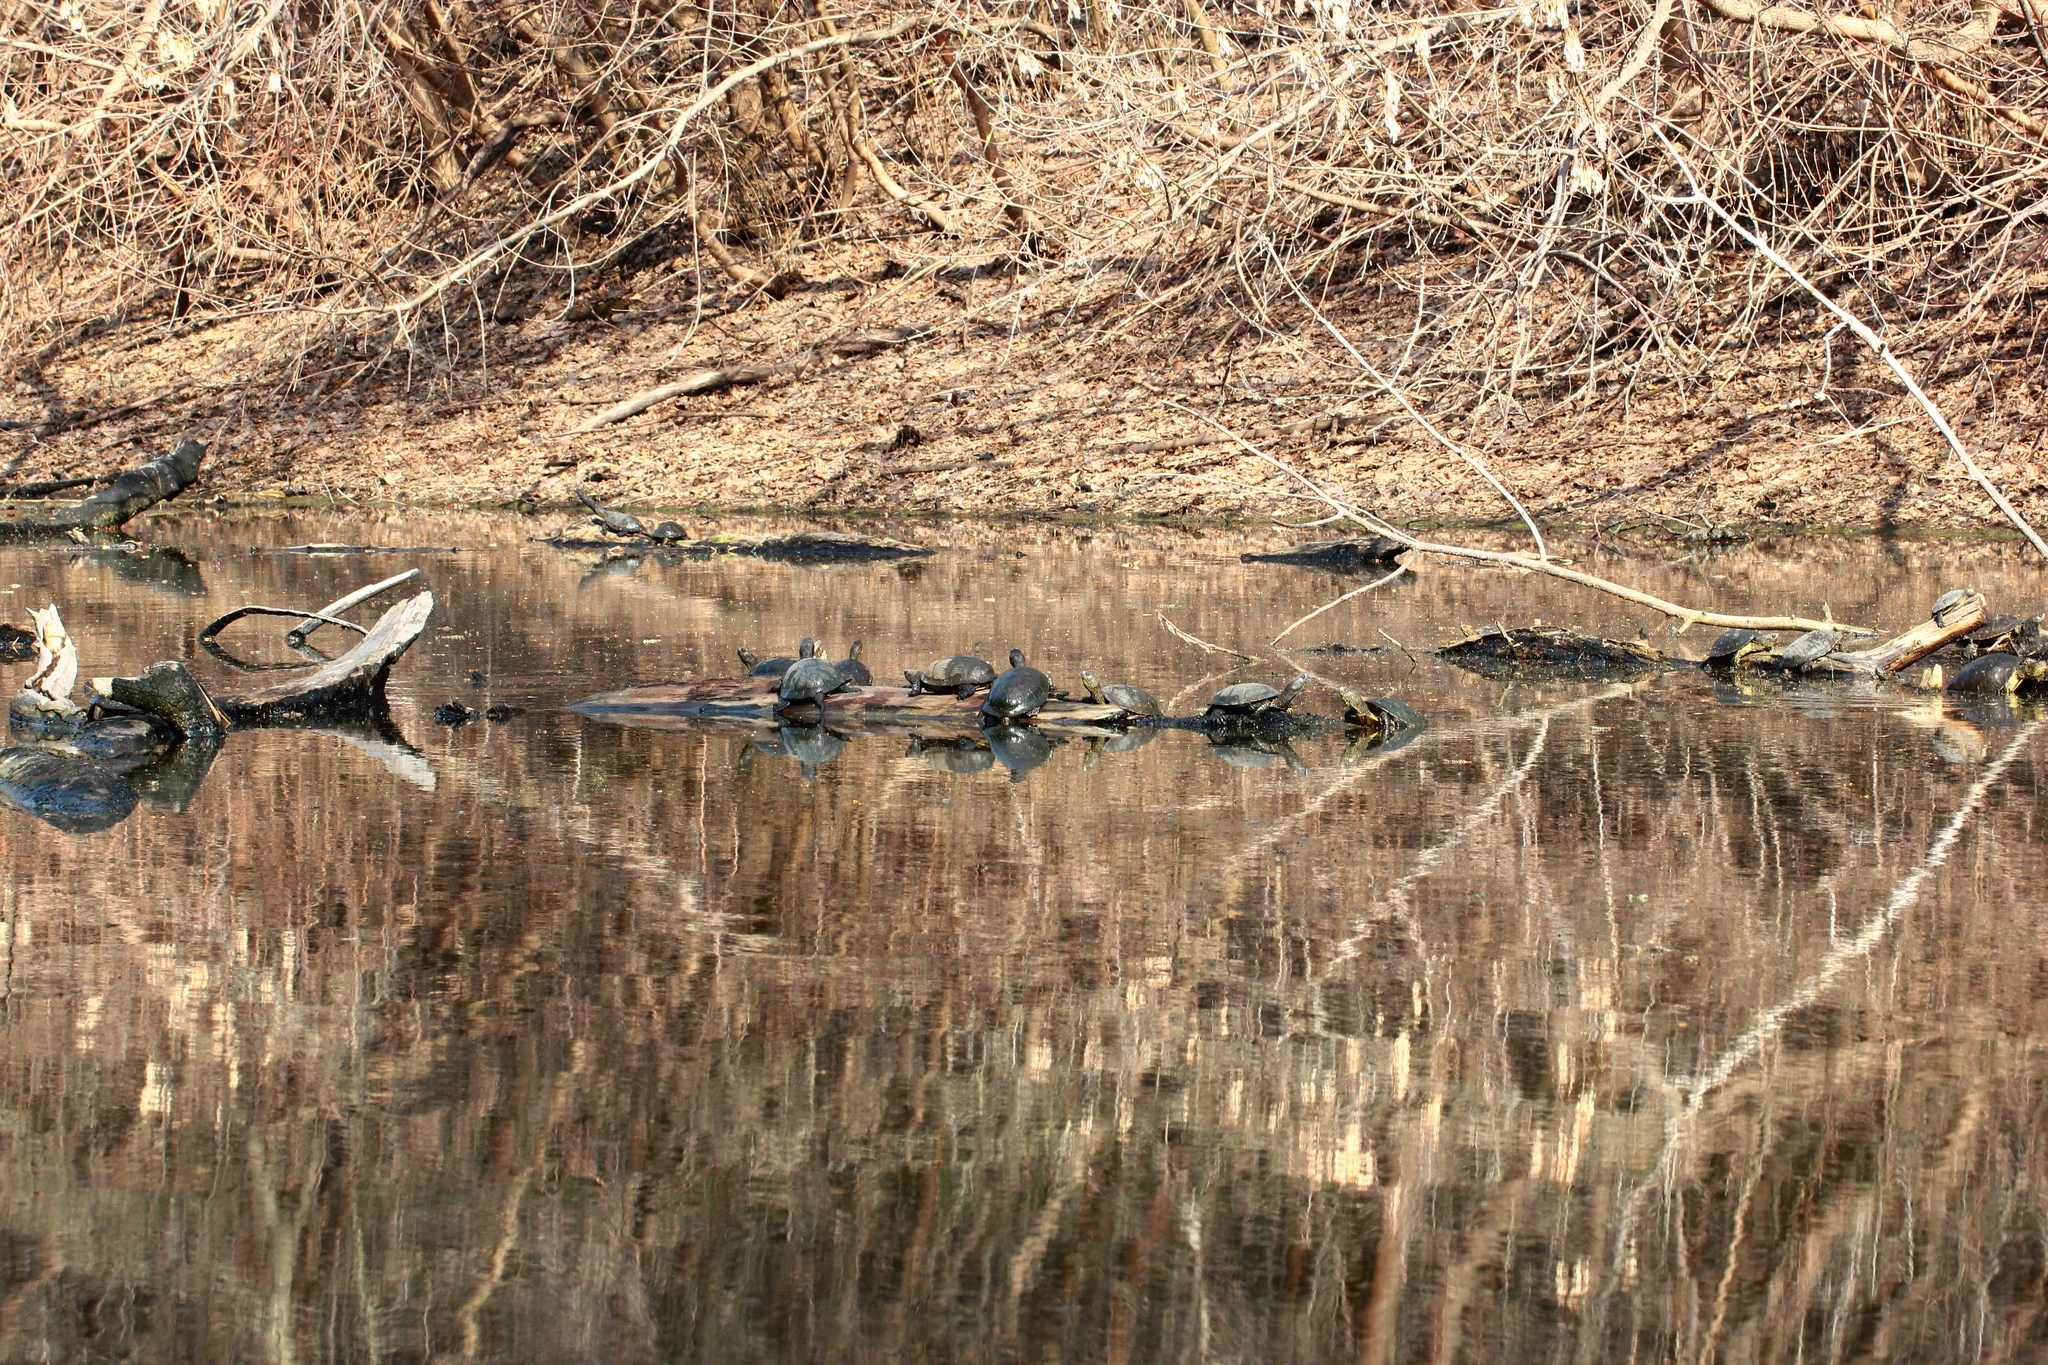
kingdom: Animalia
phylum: Chordata
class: Testudines
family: Emydidae
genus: Emys
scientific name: Emys orbicularis
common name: European pond turtle
